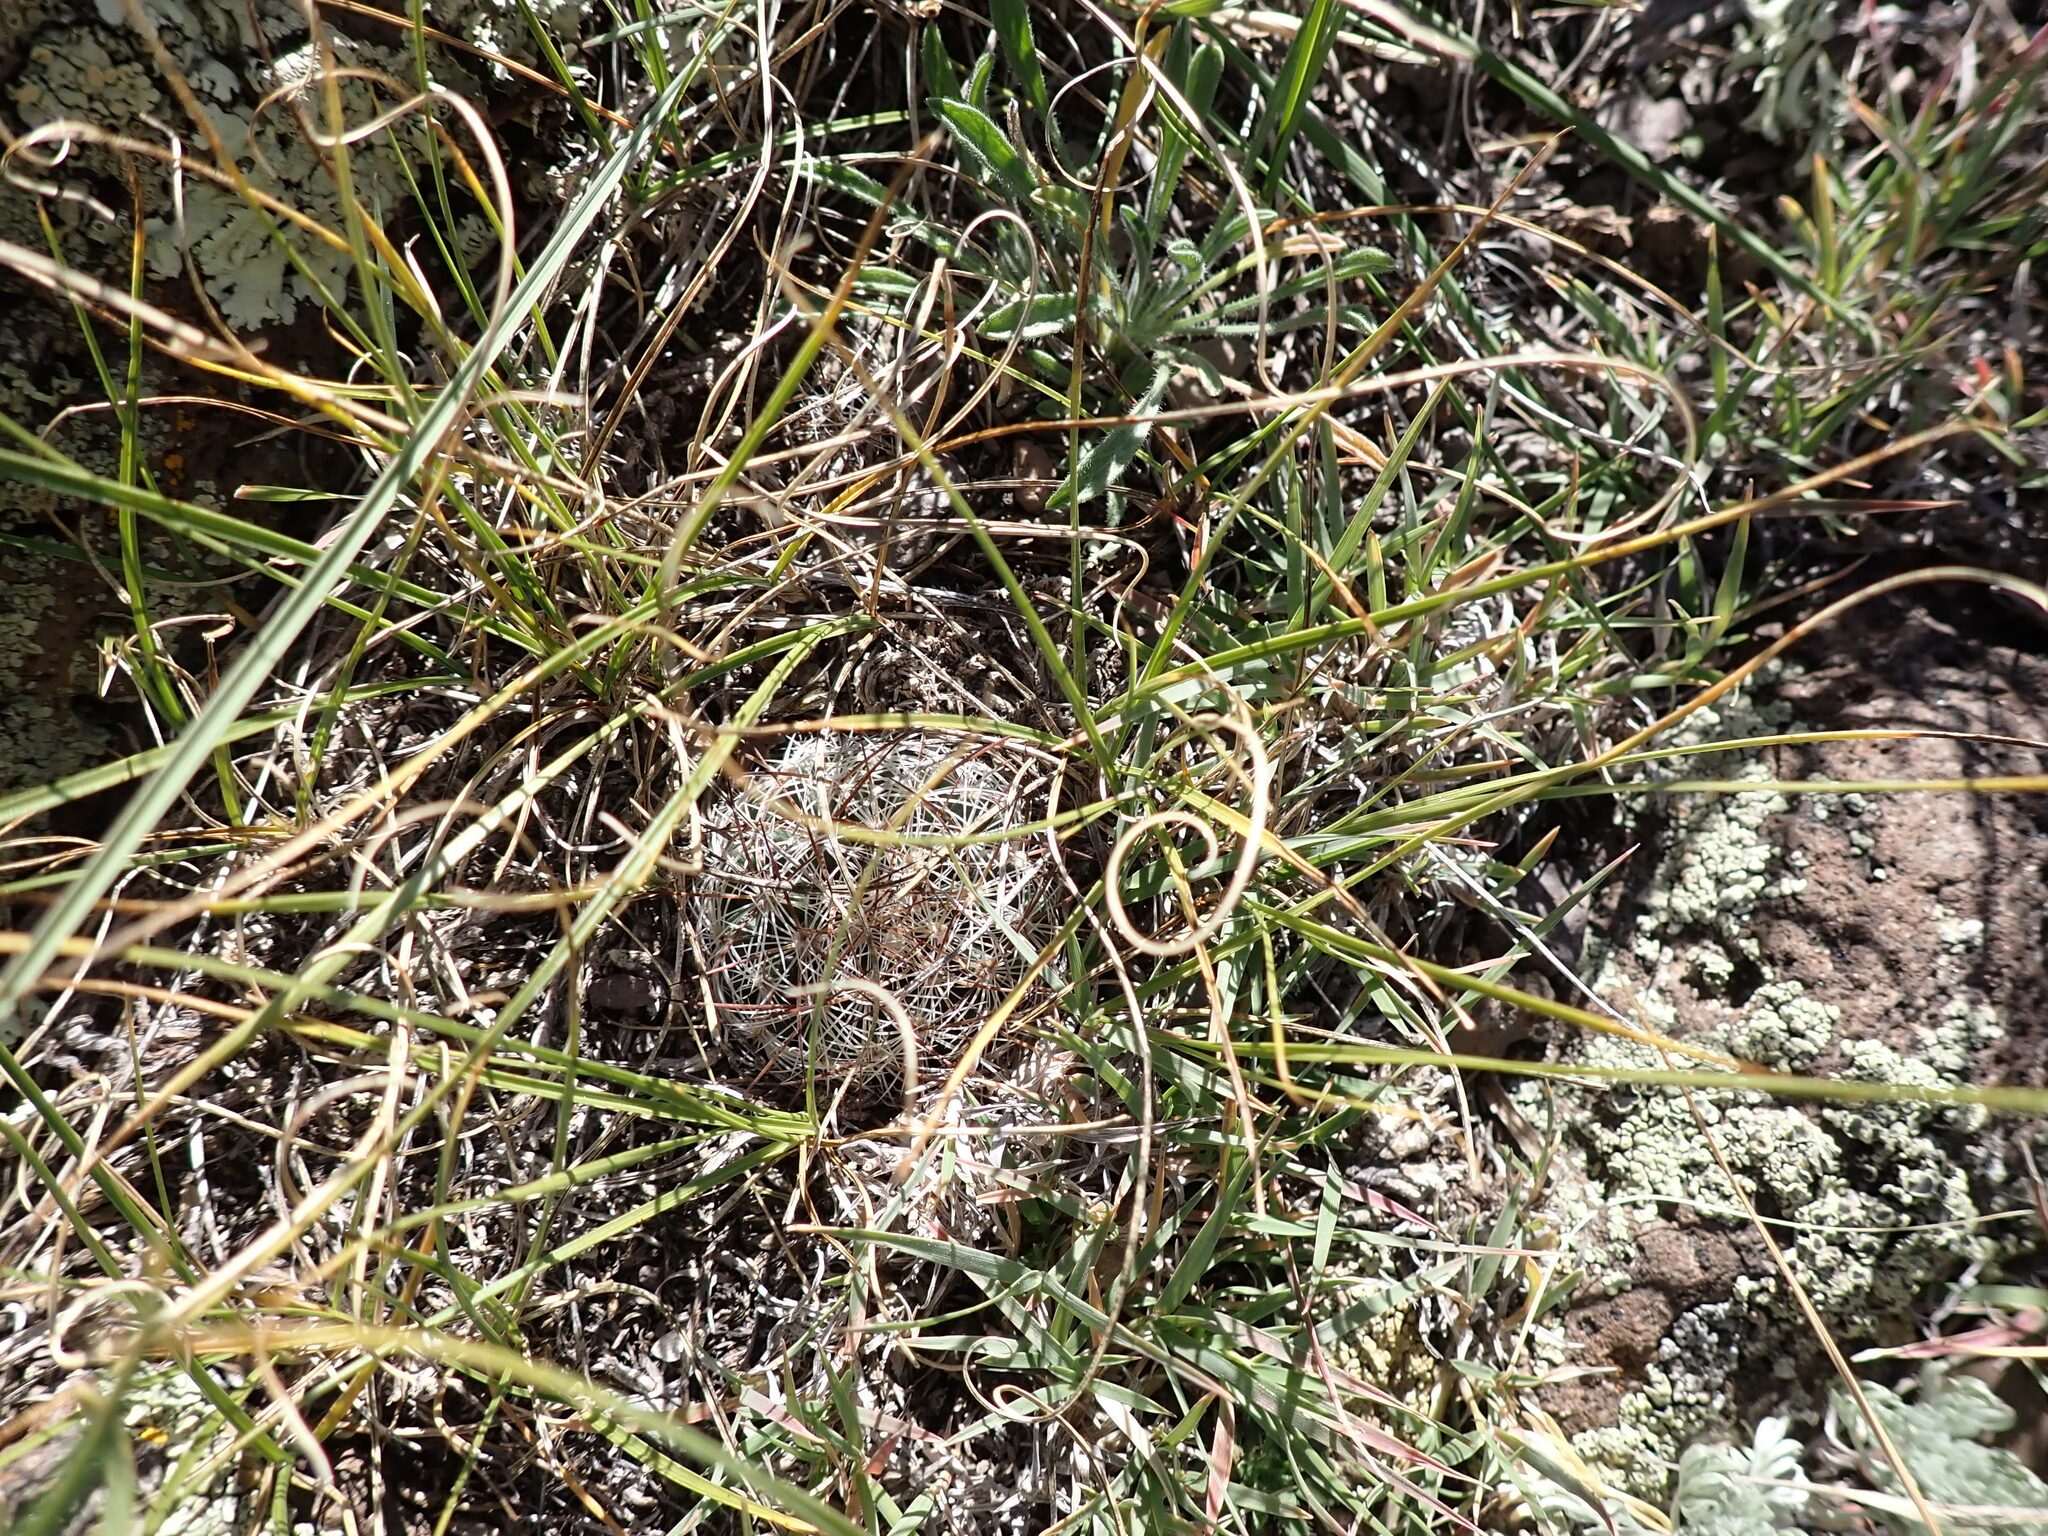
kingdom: Plantae
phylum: Tracheophyta
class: Magnoliopsida
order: Caryophyllales
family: Cactaceae
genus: Pediocactus
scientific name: Pediocactus simpsonii
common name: Simpson's hedgehog cactus
